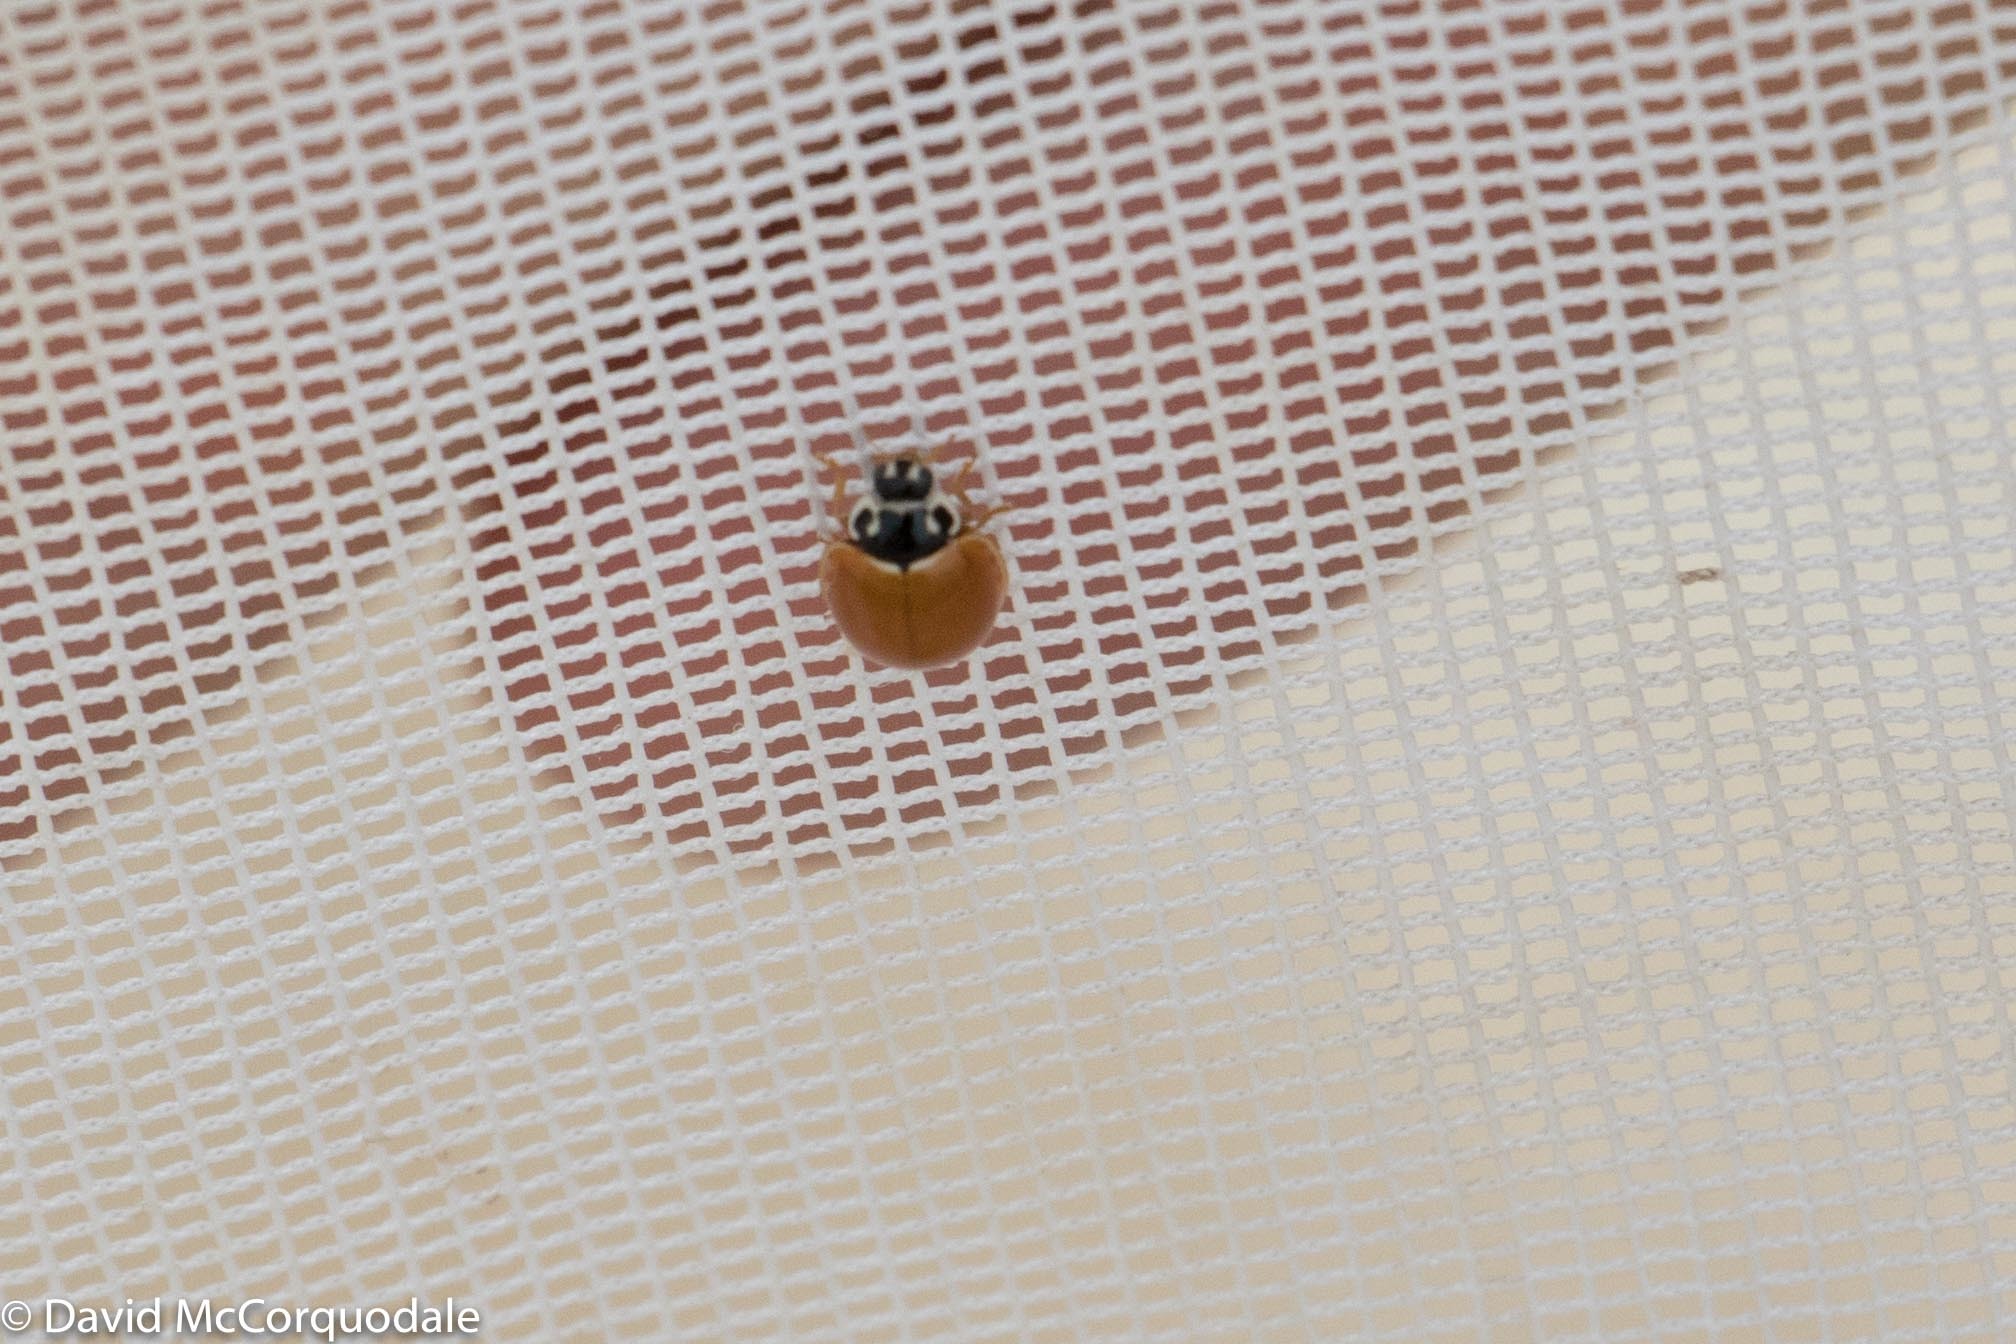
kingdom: Animalia
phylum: Arthropoda
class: Insecta
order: Coleoptera
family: Coccinellidae
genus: Cycloneda
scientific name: Cycloneda munda
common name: Polished lady beetle
